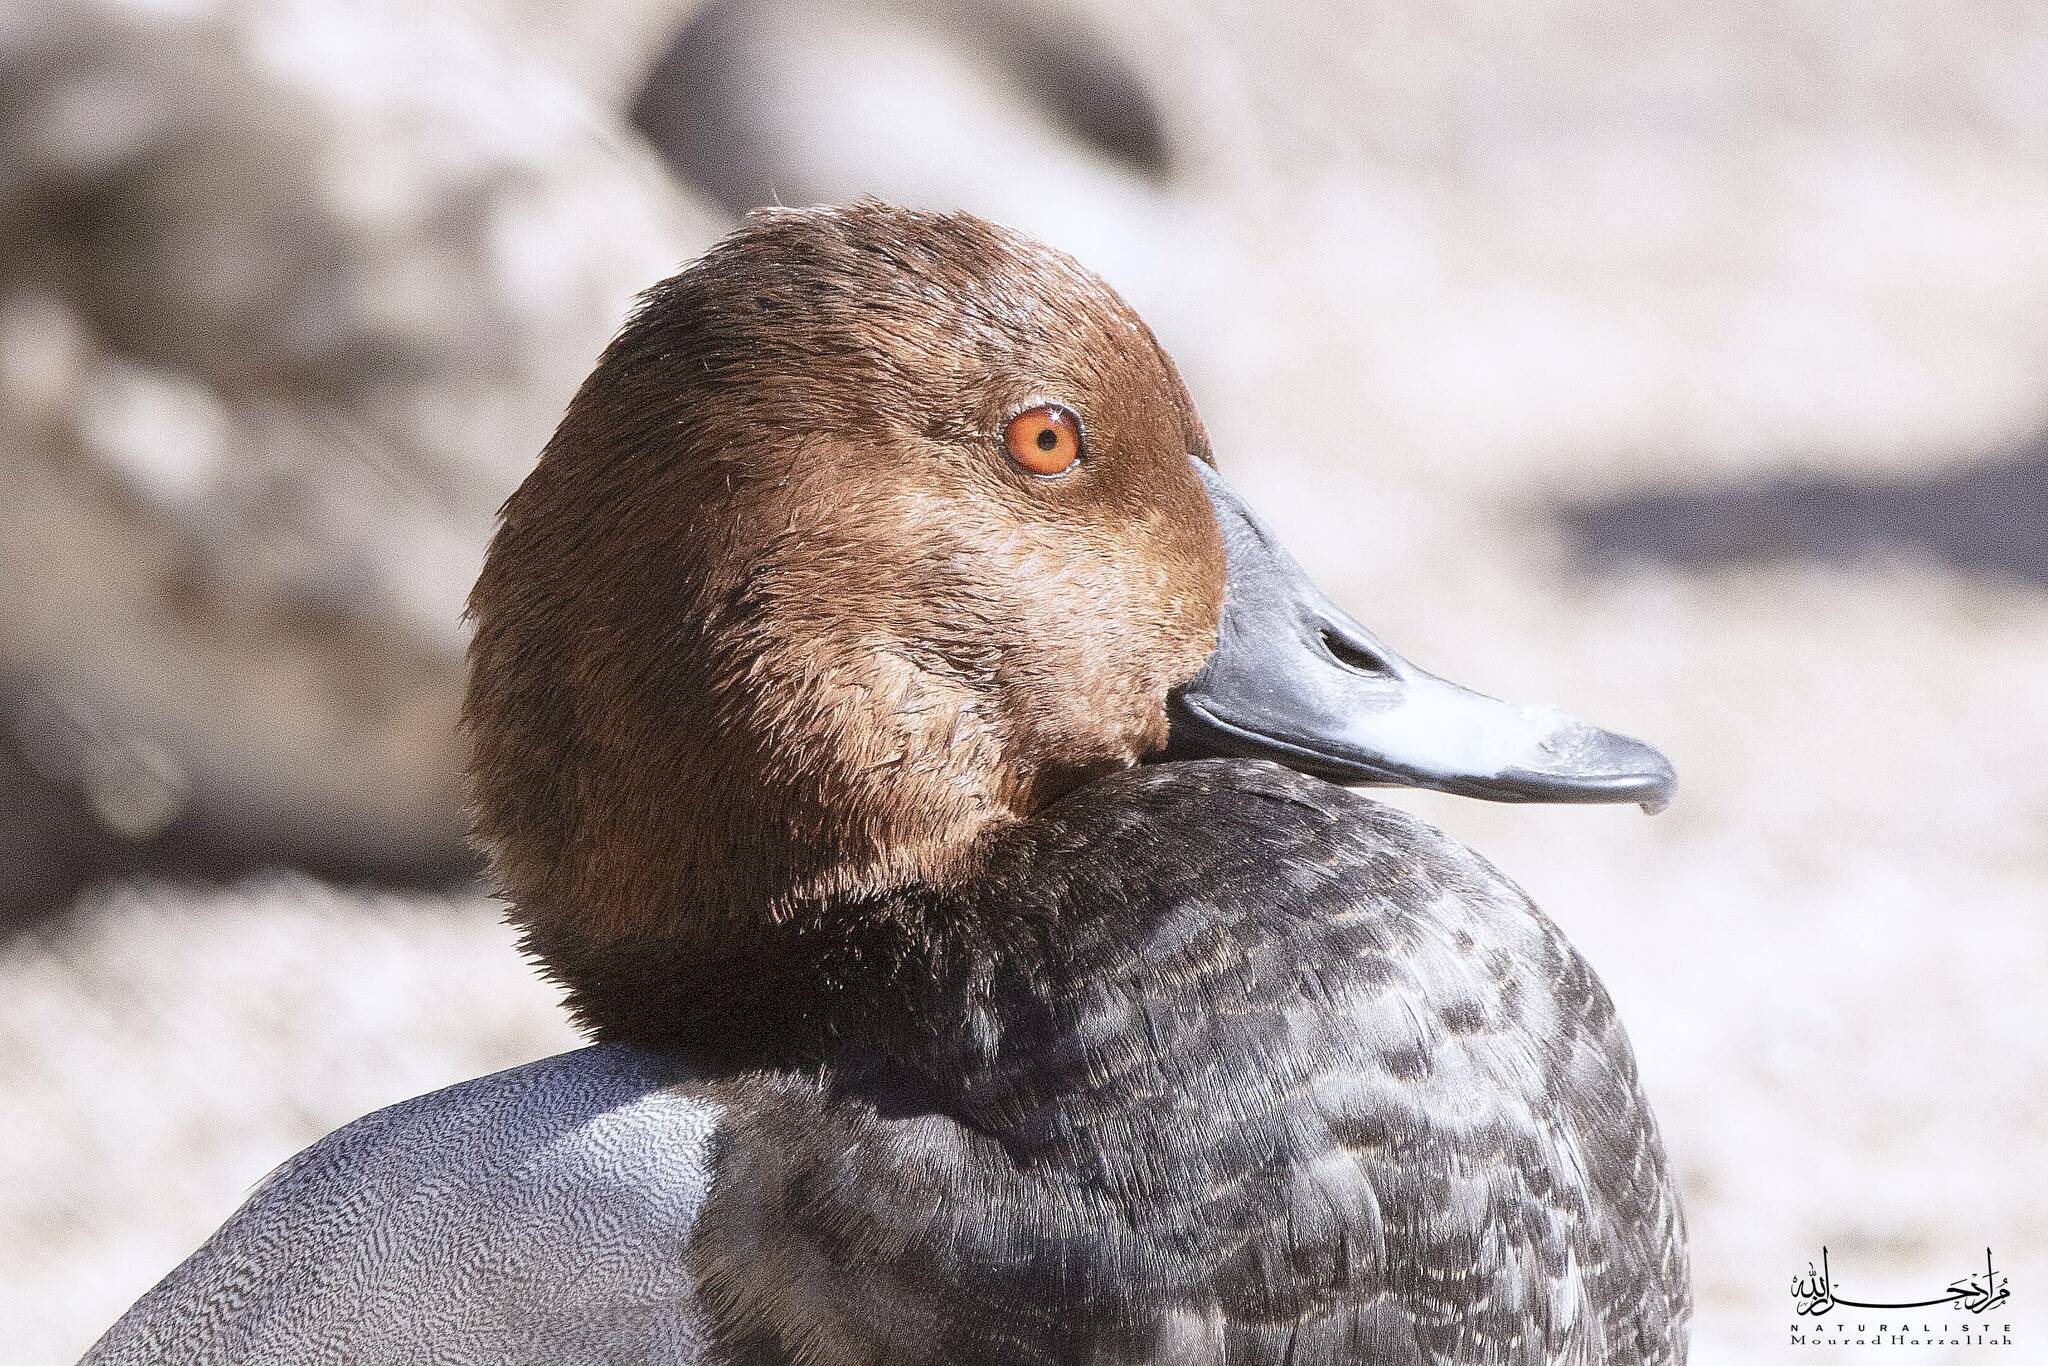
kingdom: Animalia
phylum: Chordata
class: Aves
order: Anseriformes
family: Anatidae
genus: Aythya
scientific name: Aythya ferina
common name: Common pochard
